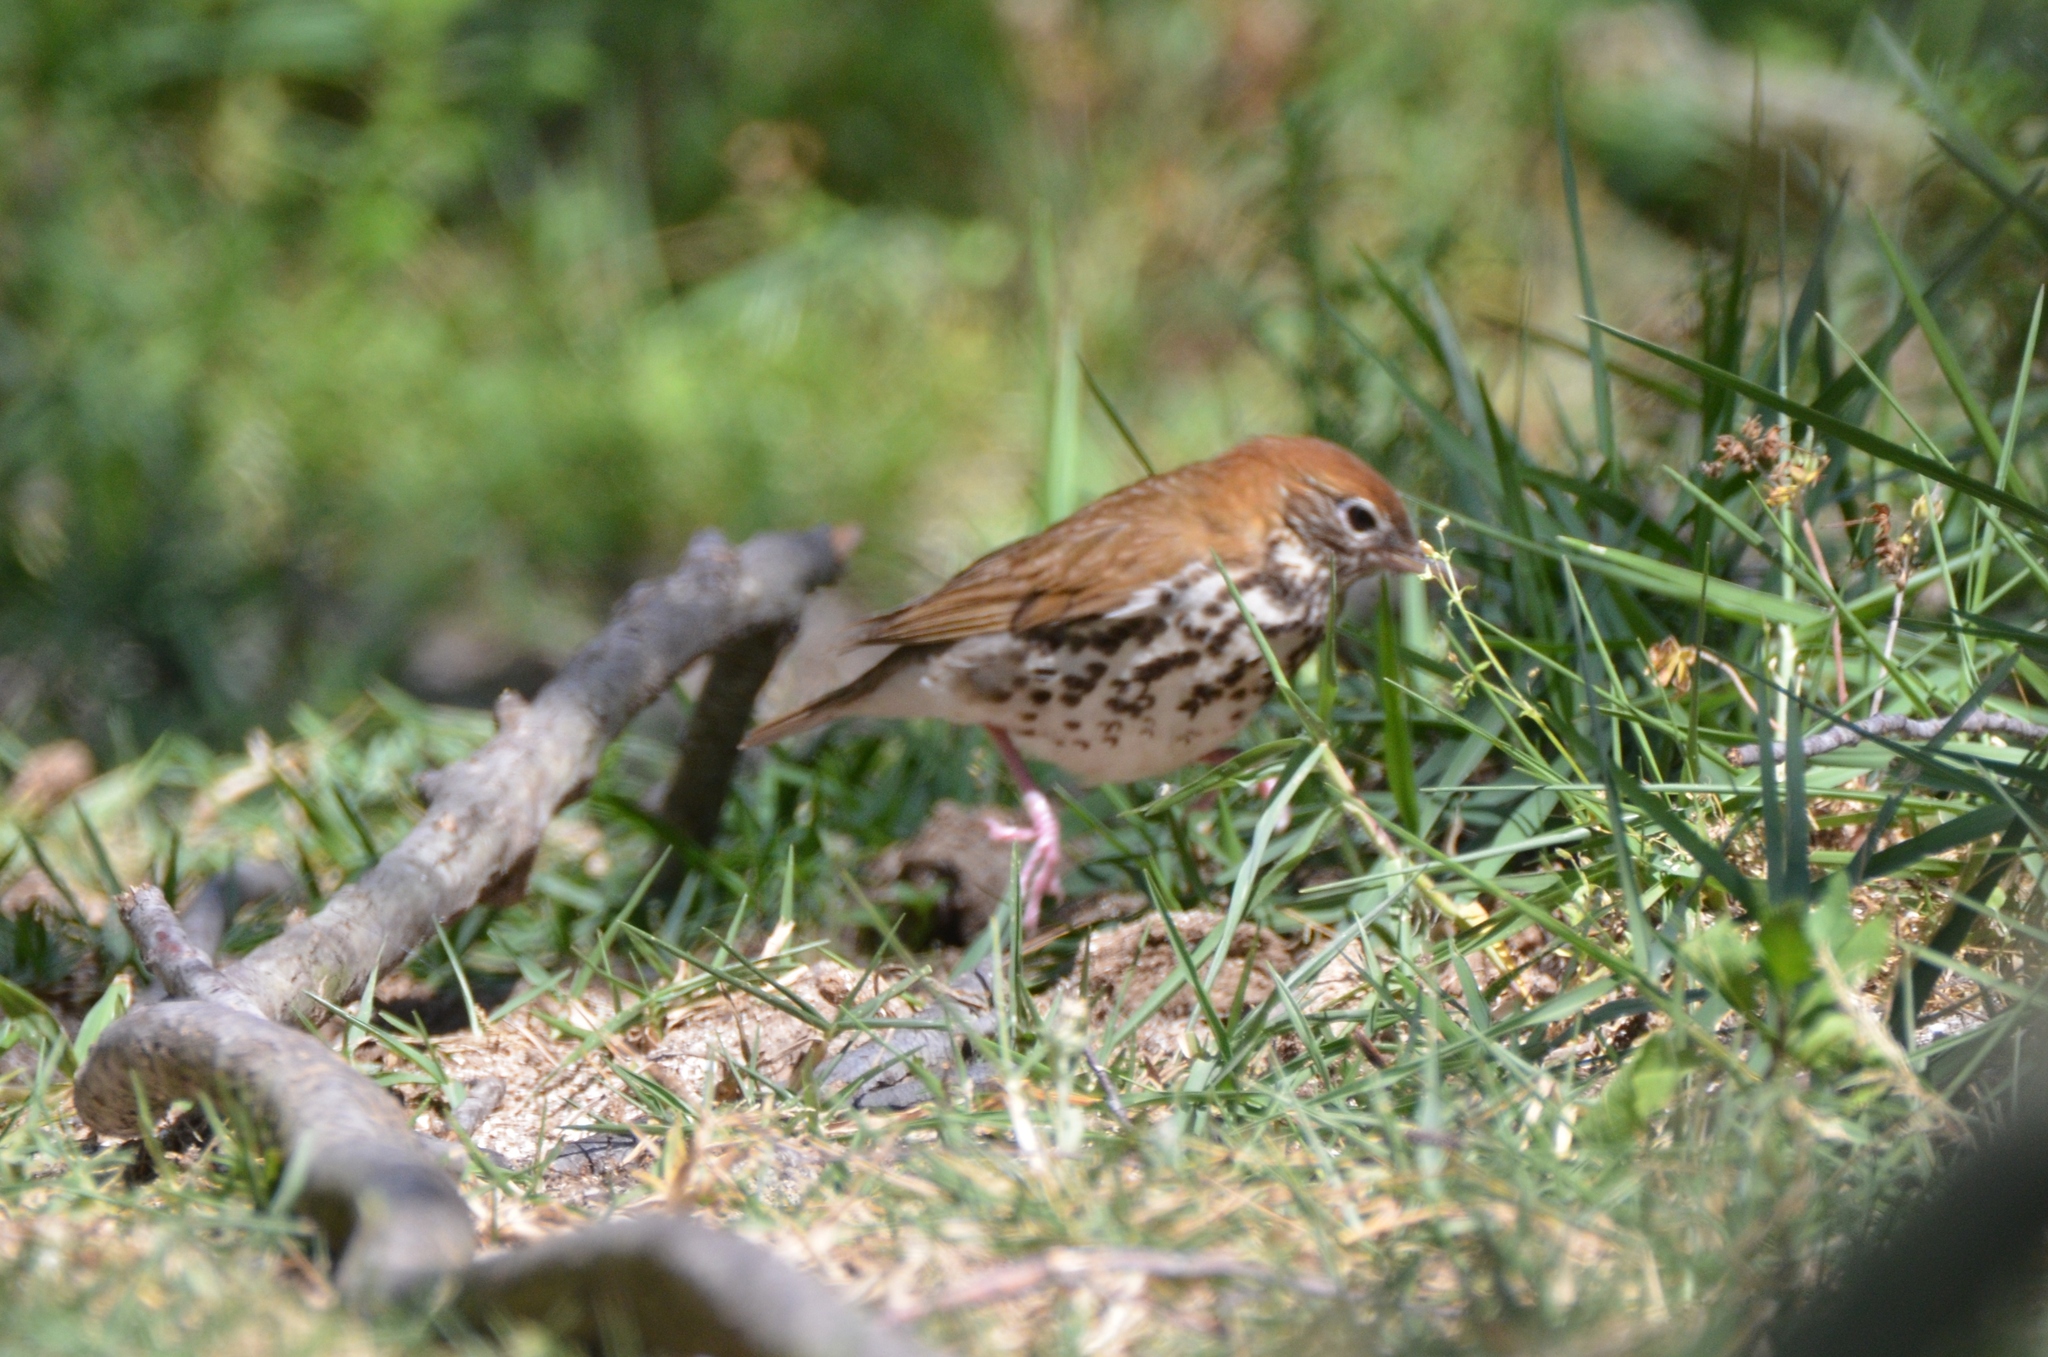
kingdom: Animalia
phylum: Chordata
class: Aves
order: Passeriformes
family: Turdidae
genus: Hylocichla
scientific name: Hylocichla mustelina
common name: Wood thrush
